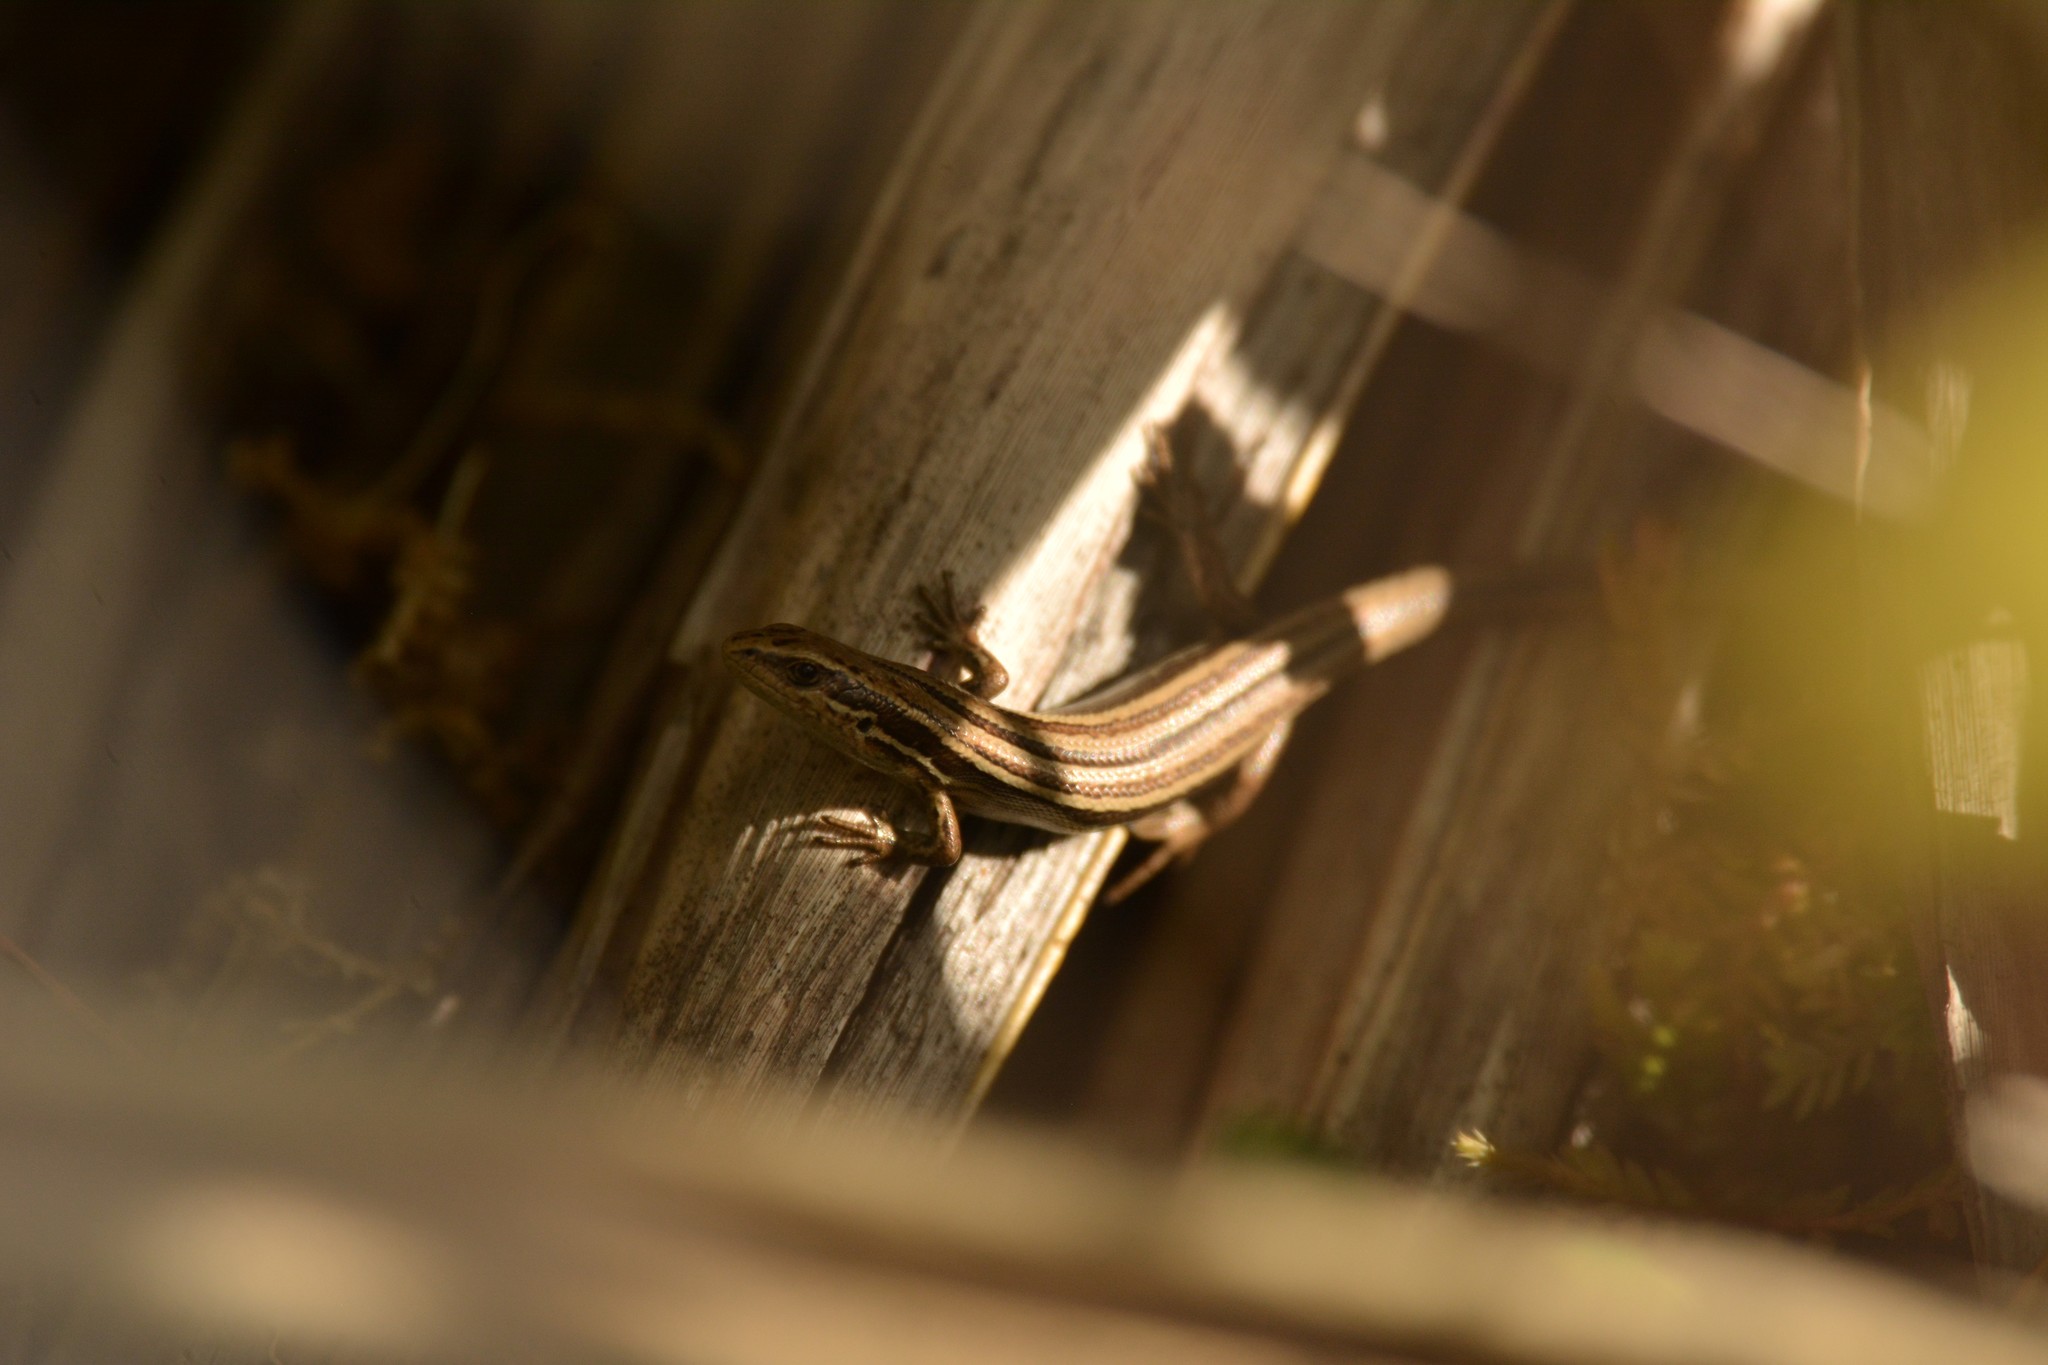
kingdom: Animalia
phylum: Chordata
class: Squamata
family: Scincidae
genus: Oligosoma
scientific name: Oligosoma polychroma
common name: Common new zealand skink
